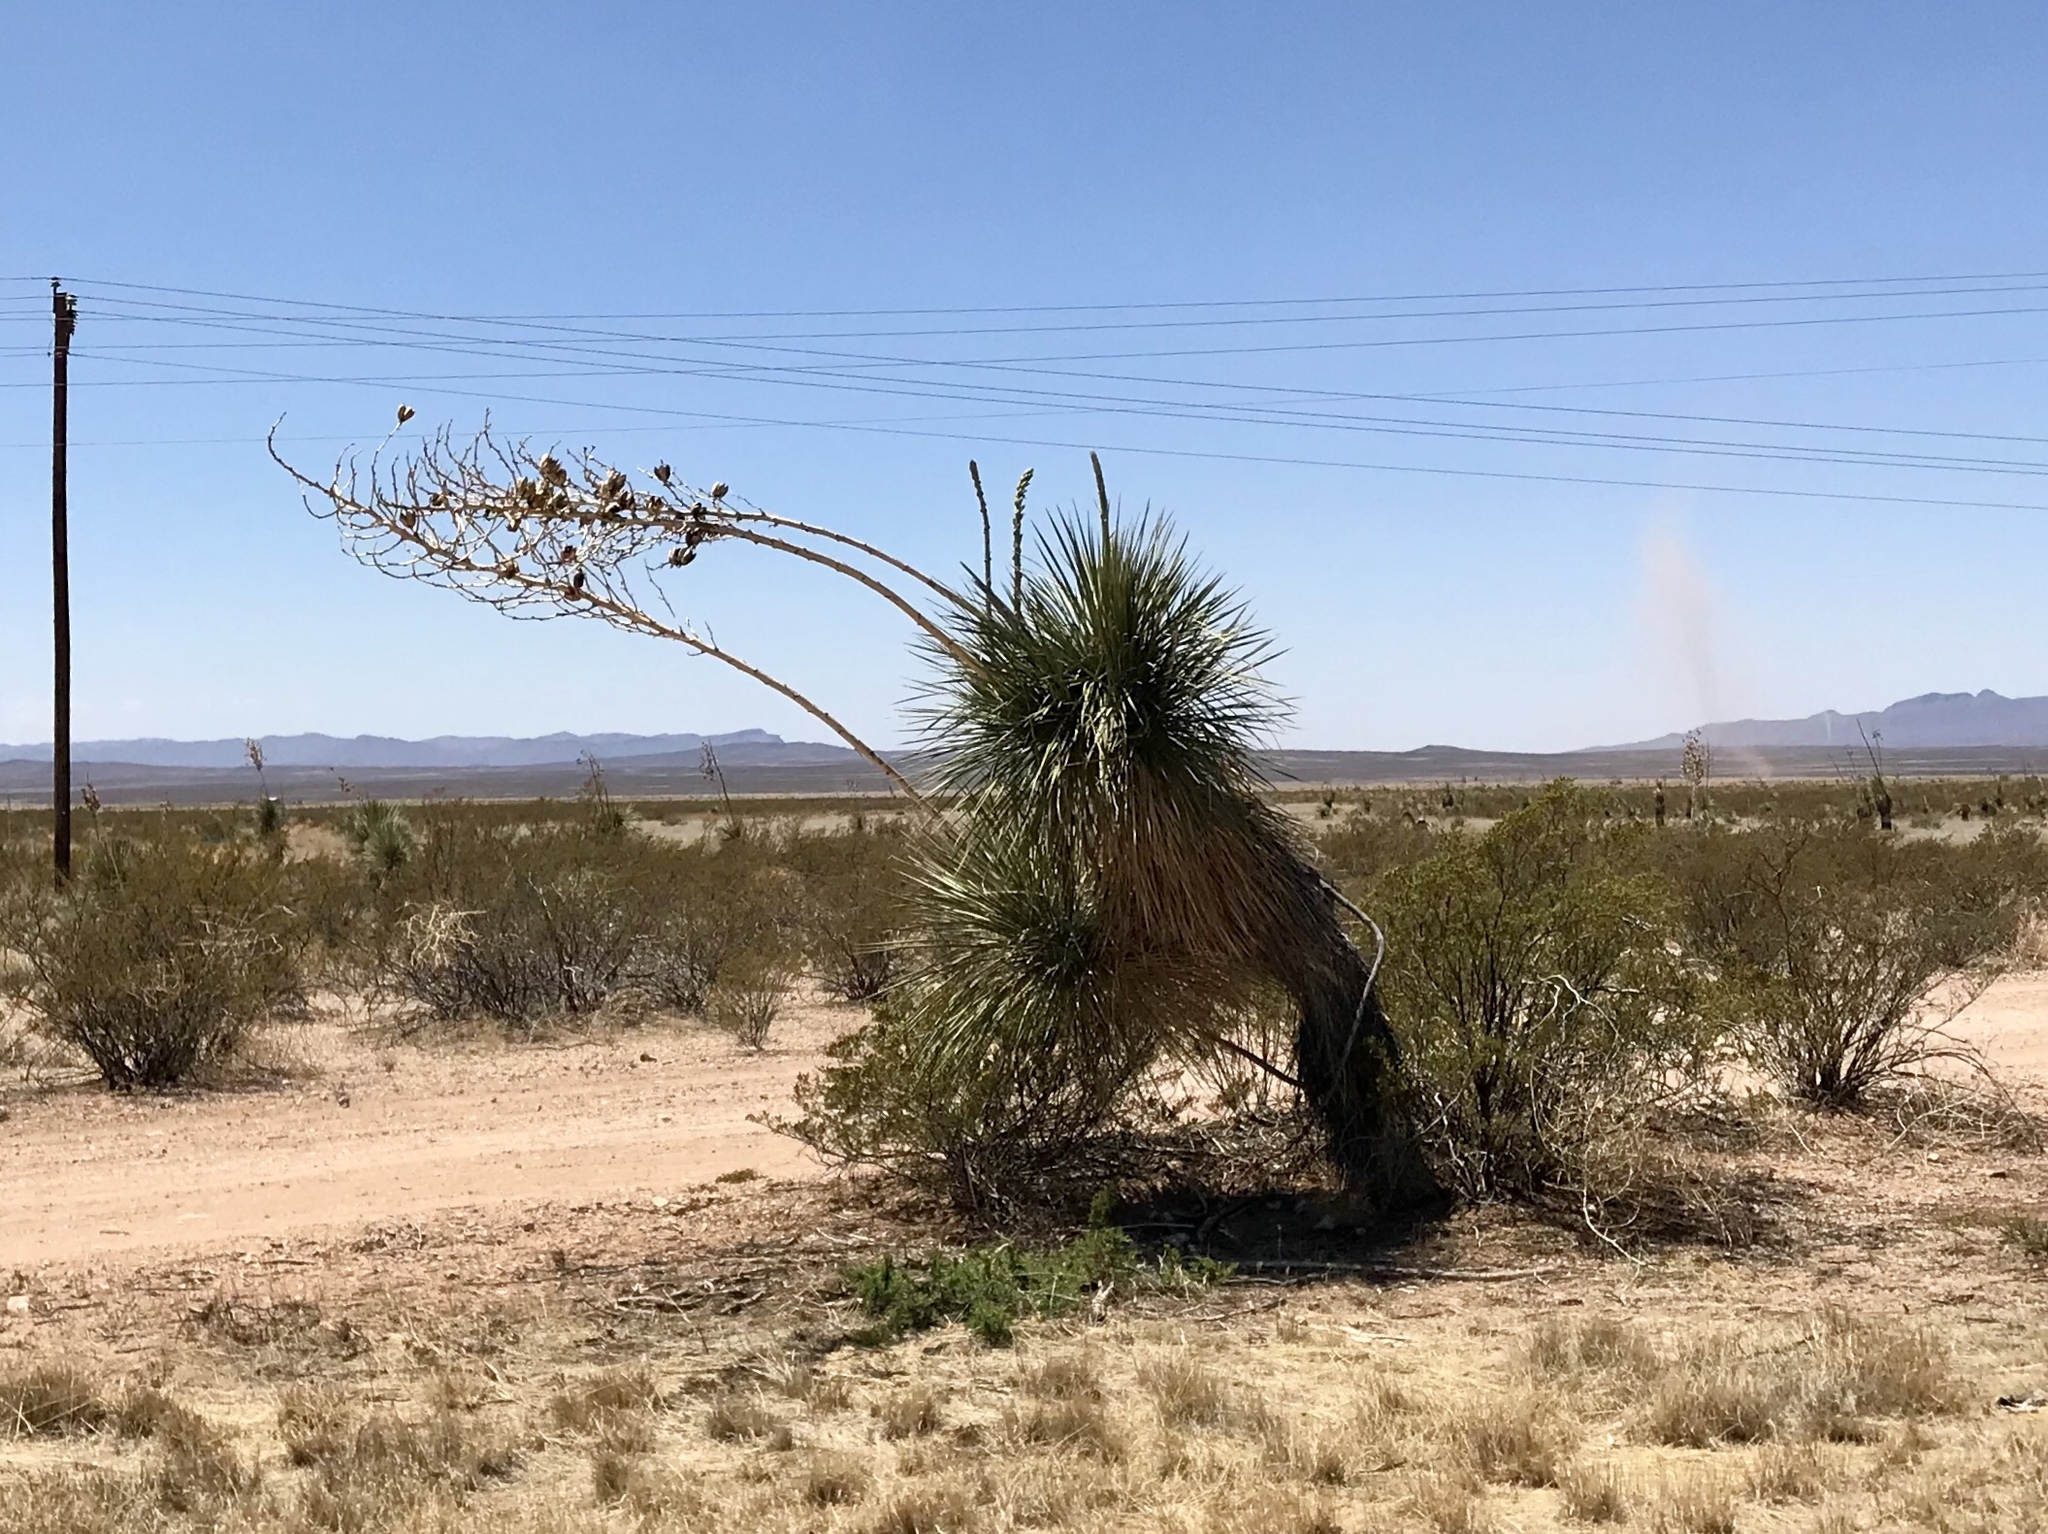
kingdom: Plantae
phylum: Tracheophyta
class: Liliopsida
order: Asparagales
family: Asparagaceae
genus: Yucca
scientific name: Yucca elata
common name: Palmella
